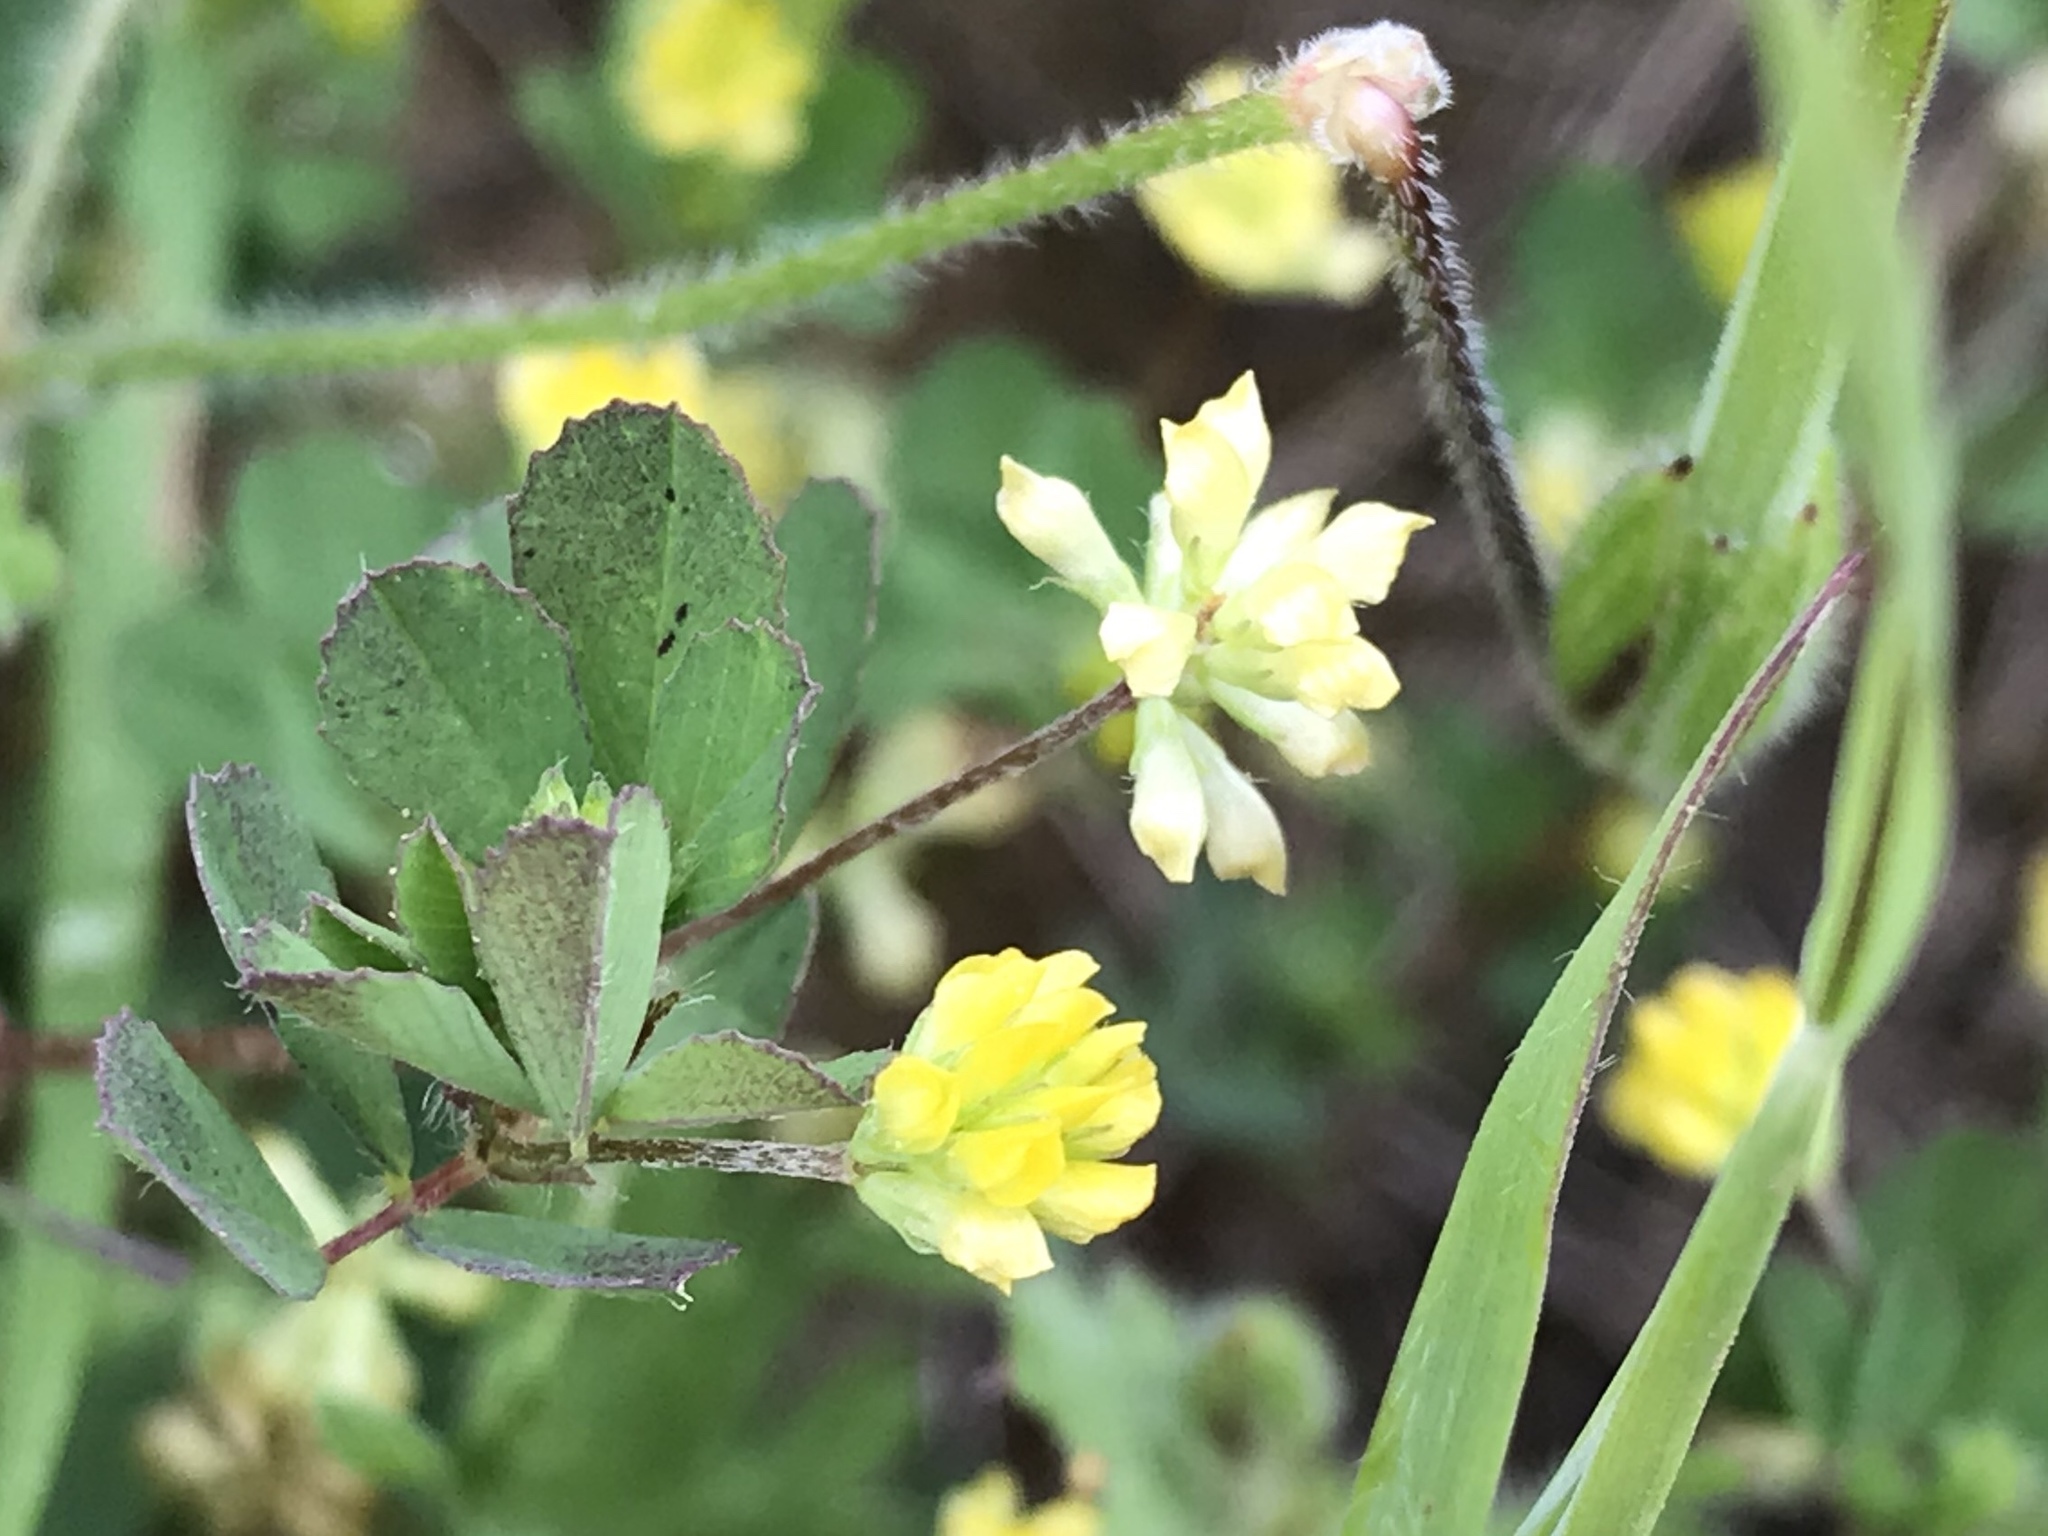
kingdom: Plantae
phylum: Tracheophyta
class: Magnoliopsida
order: Fabales
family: Fabaceae
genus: Trifolium
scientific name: Trifolium dubium
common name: Suckling clover
